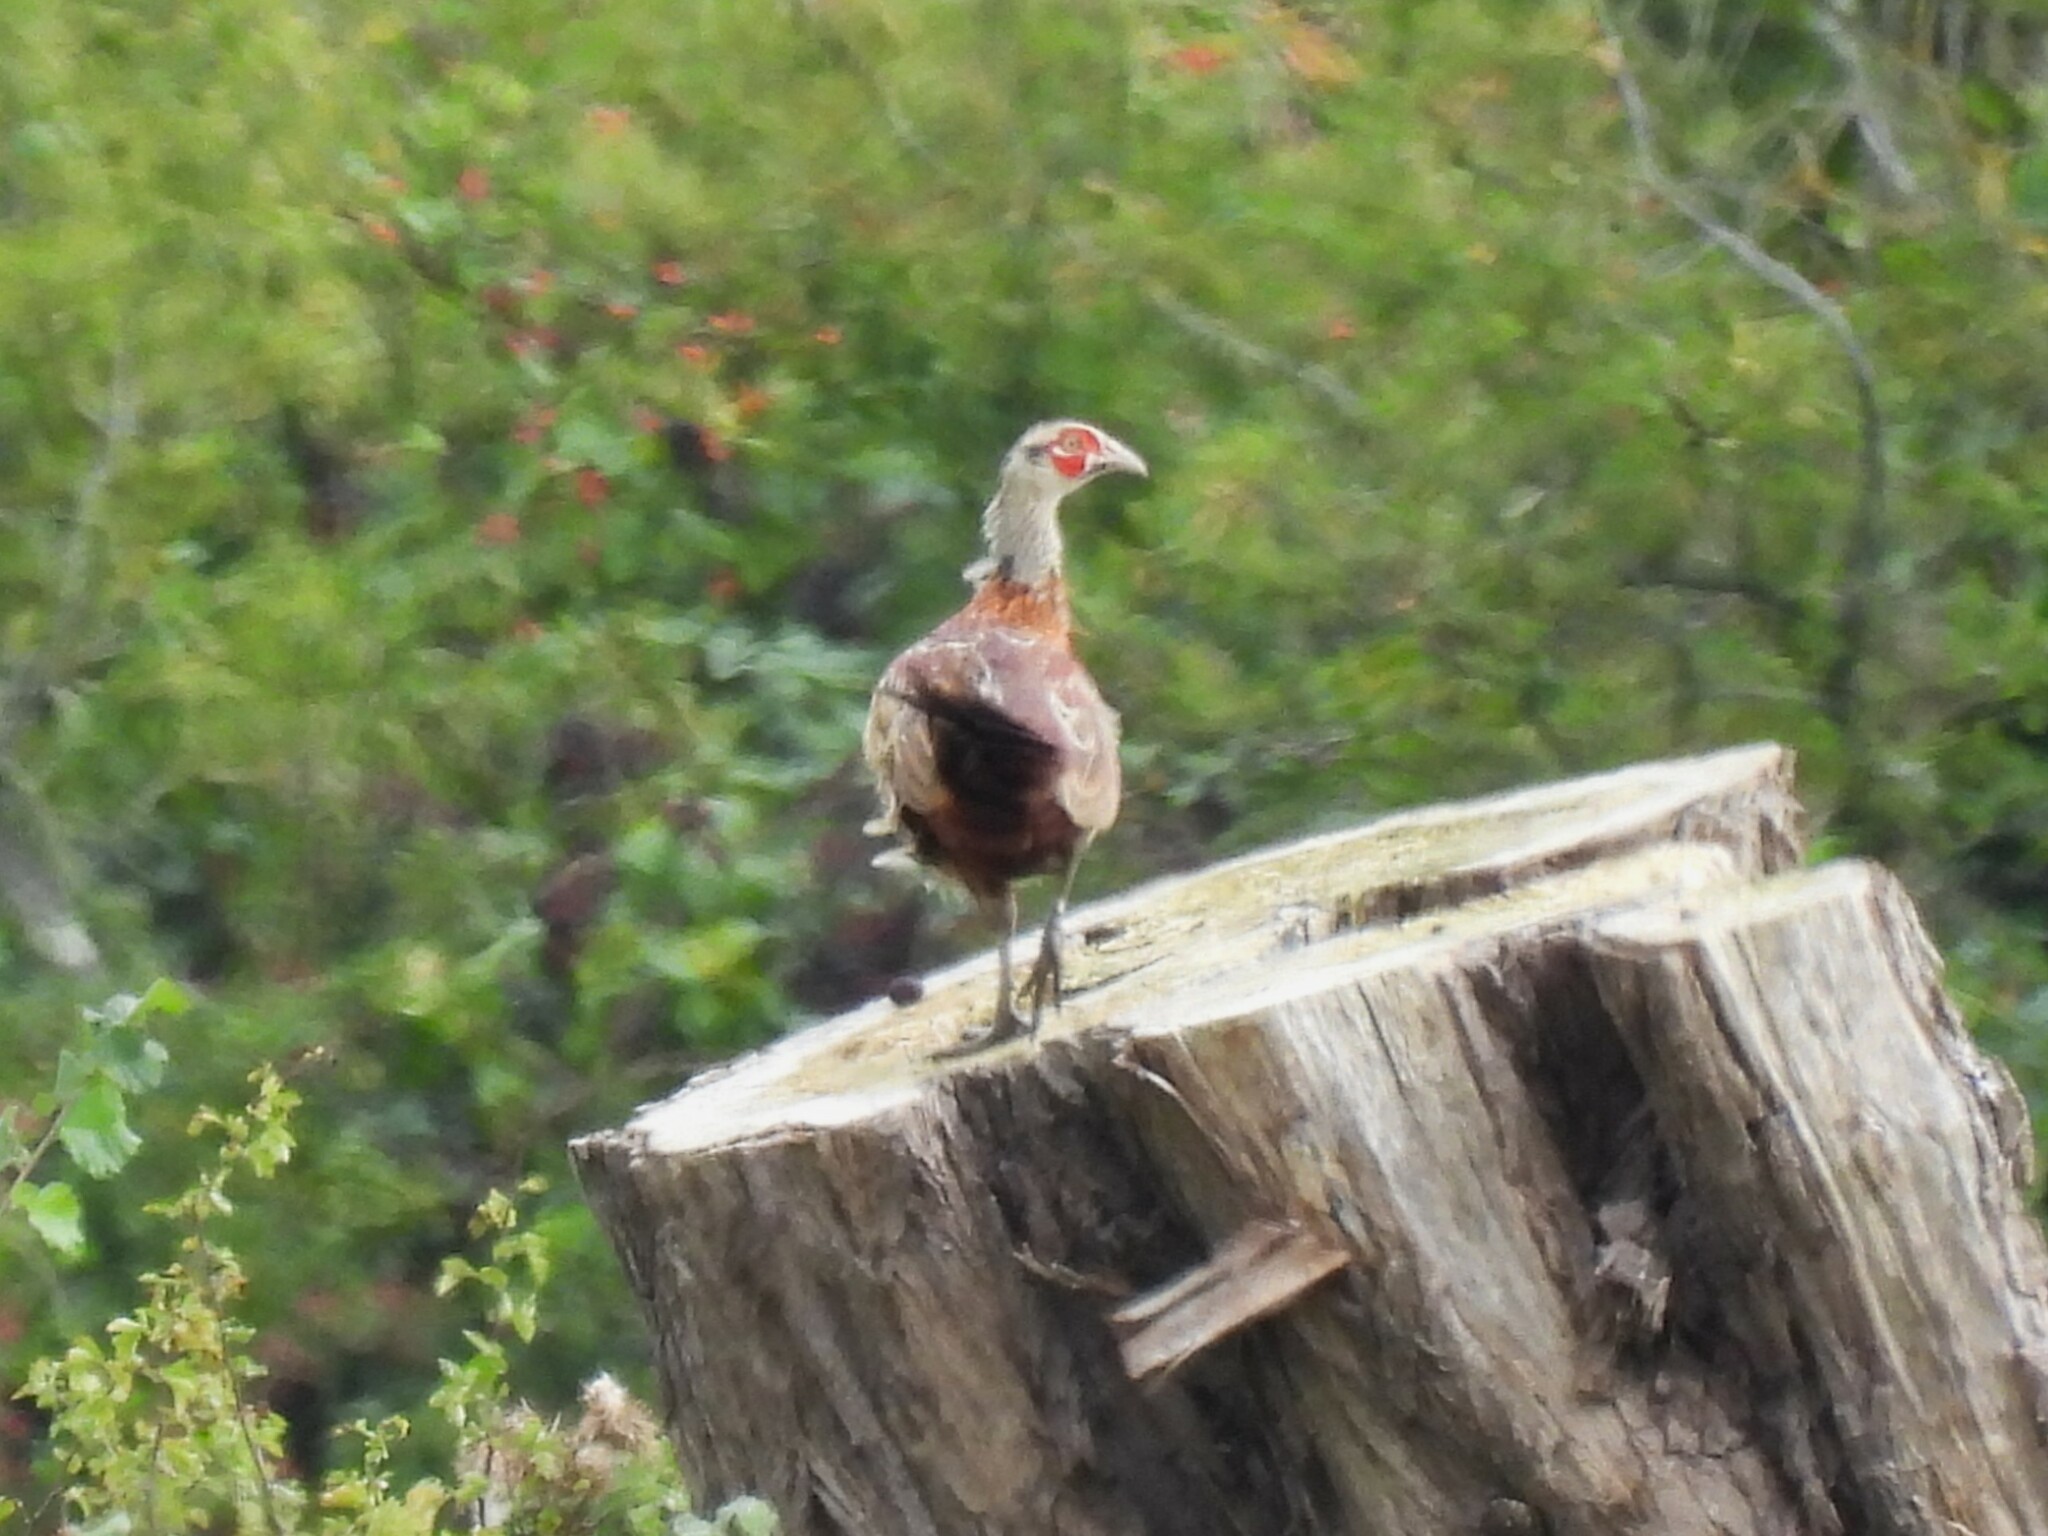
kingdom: Animalia
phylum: Chordata
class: Aves
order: Galliformes
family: Phasianidae
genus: Phasianus
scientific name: Phasianus colchicus
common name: Common pheasant
